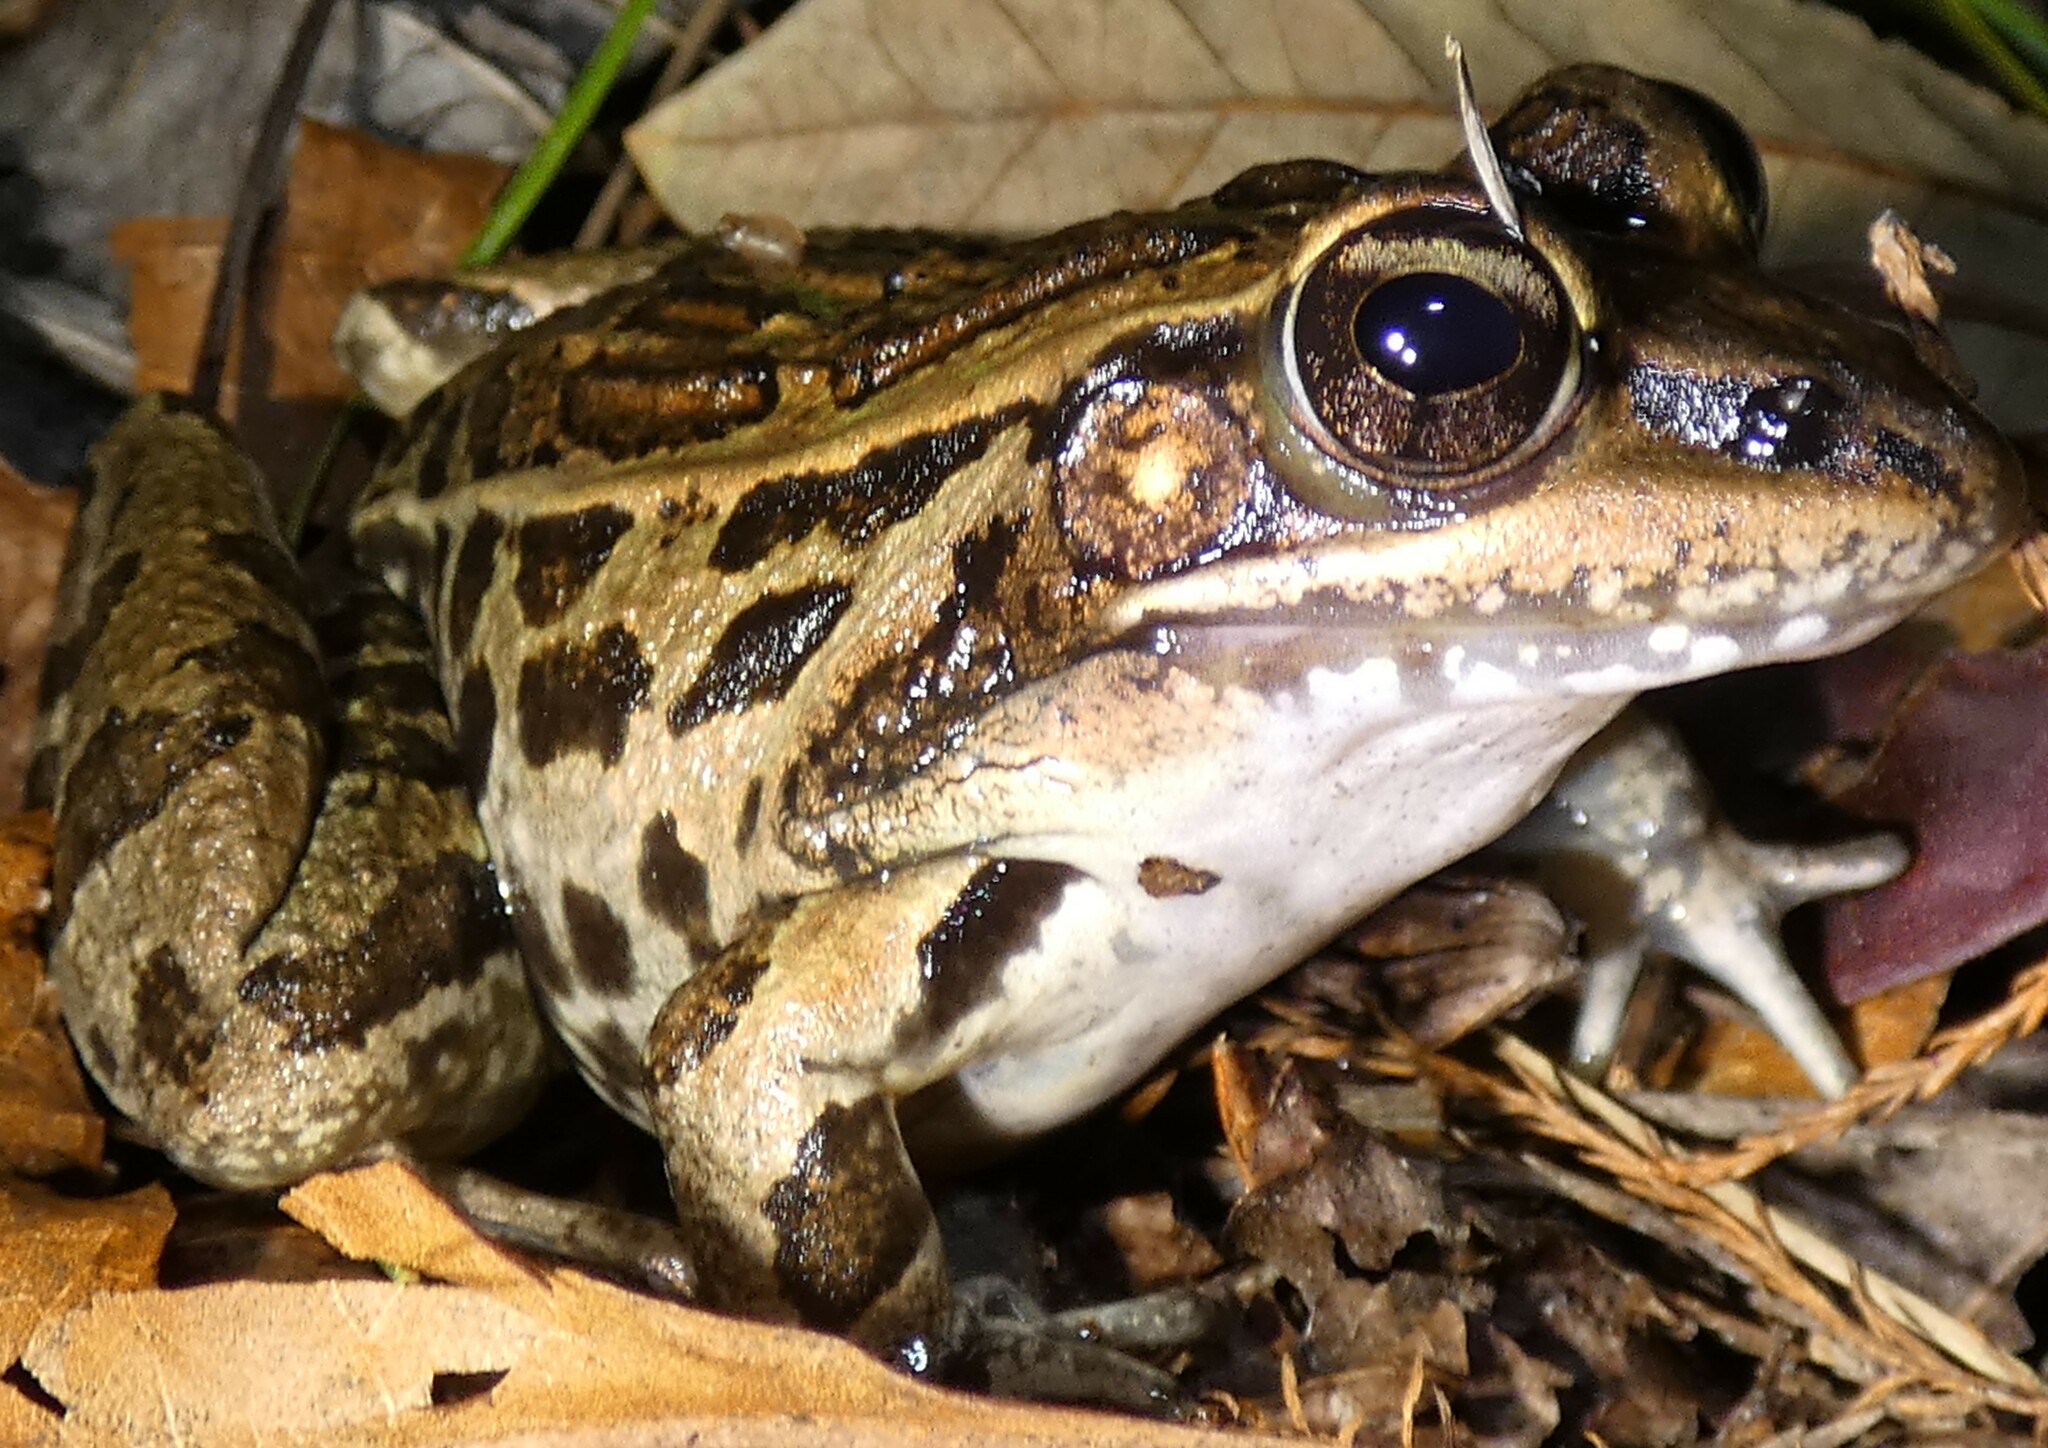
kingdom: Animalia
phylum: Chordata
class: Amphibia
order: Anura
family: Ranidae
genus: Lithobates
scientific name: Lithobates sphenocephalus
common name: Southern leopard frog
